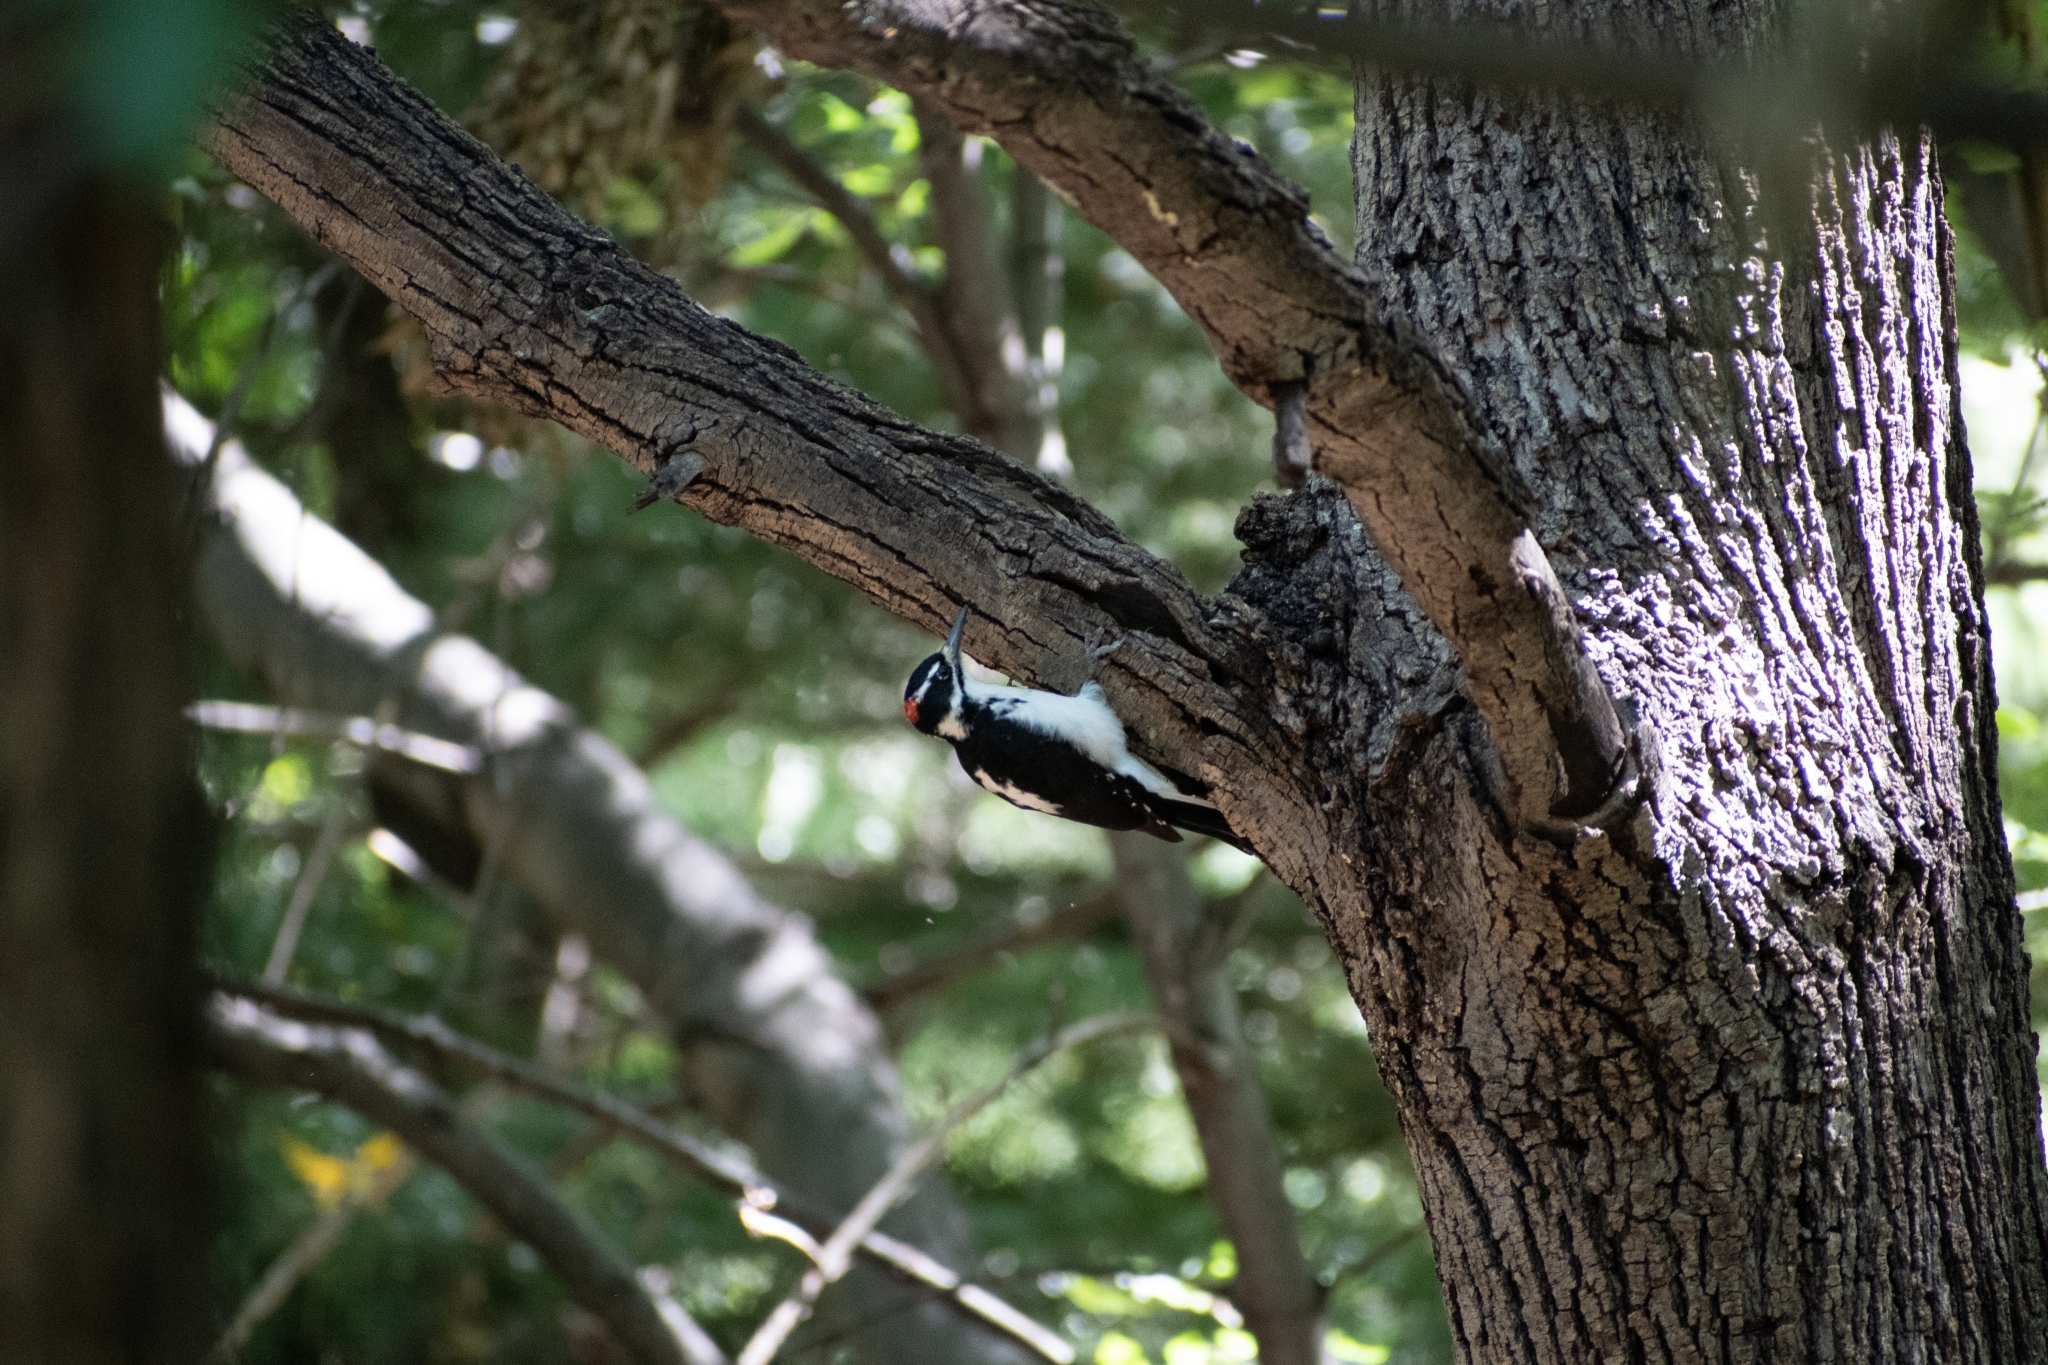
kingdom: Animalia
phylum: Chordata
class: Aves
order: Piciformes
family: Picidae
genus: Leuconotopicus
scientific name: Leuconotopicus villosus
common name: Hairy woodpecker
